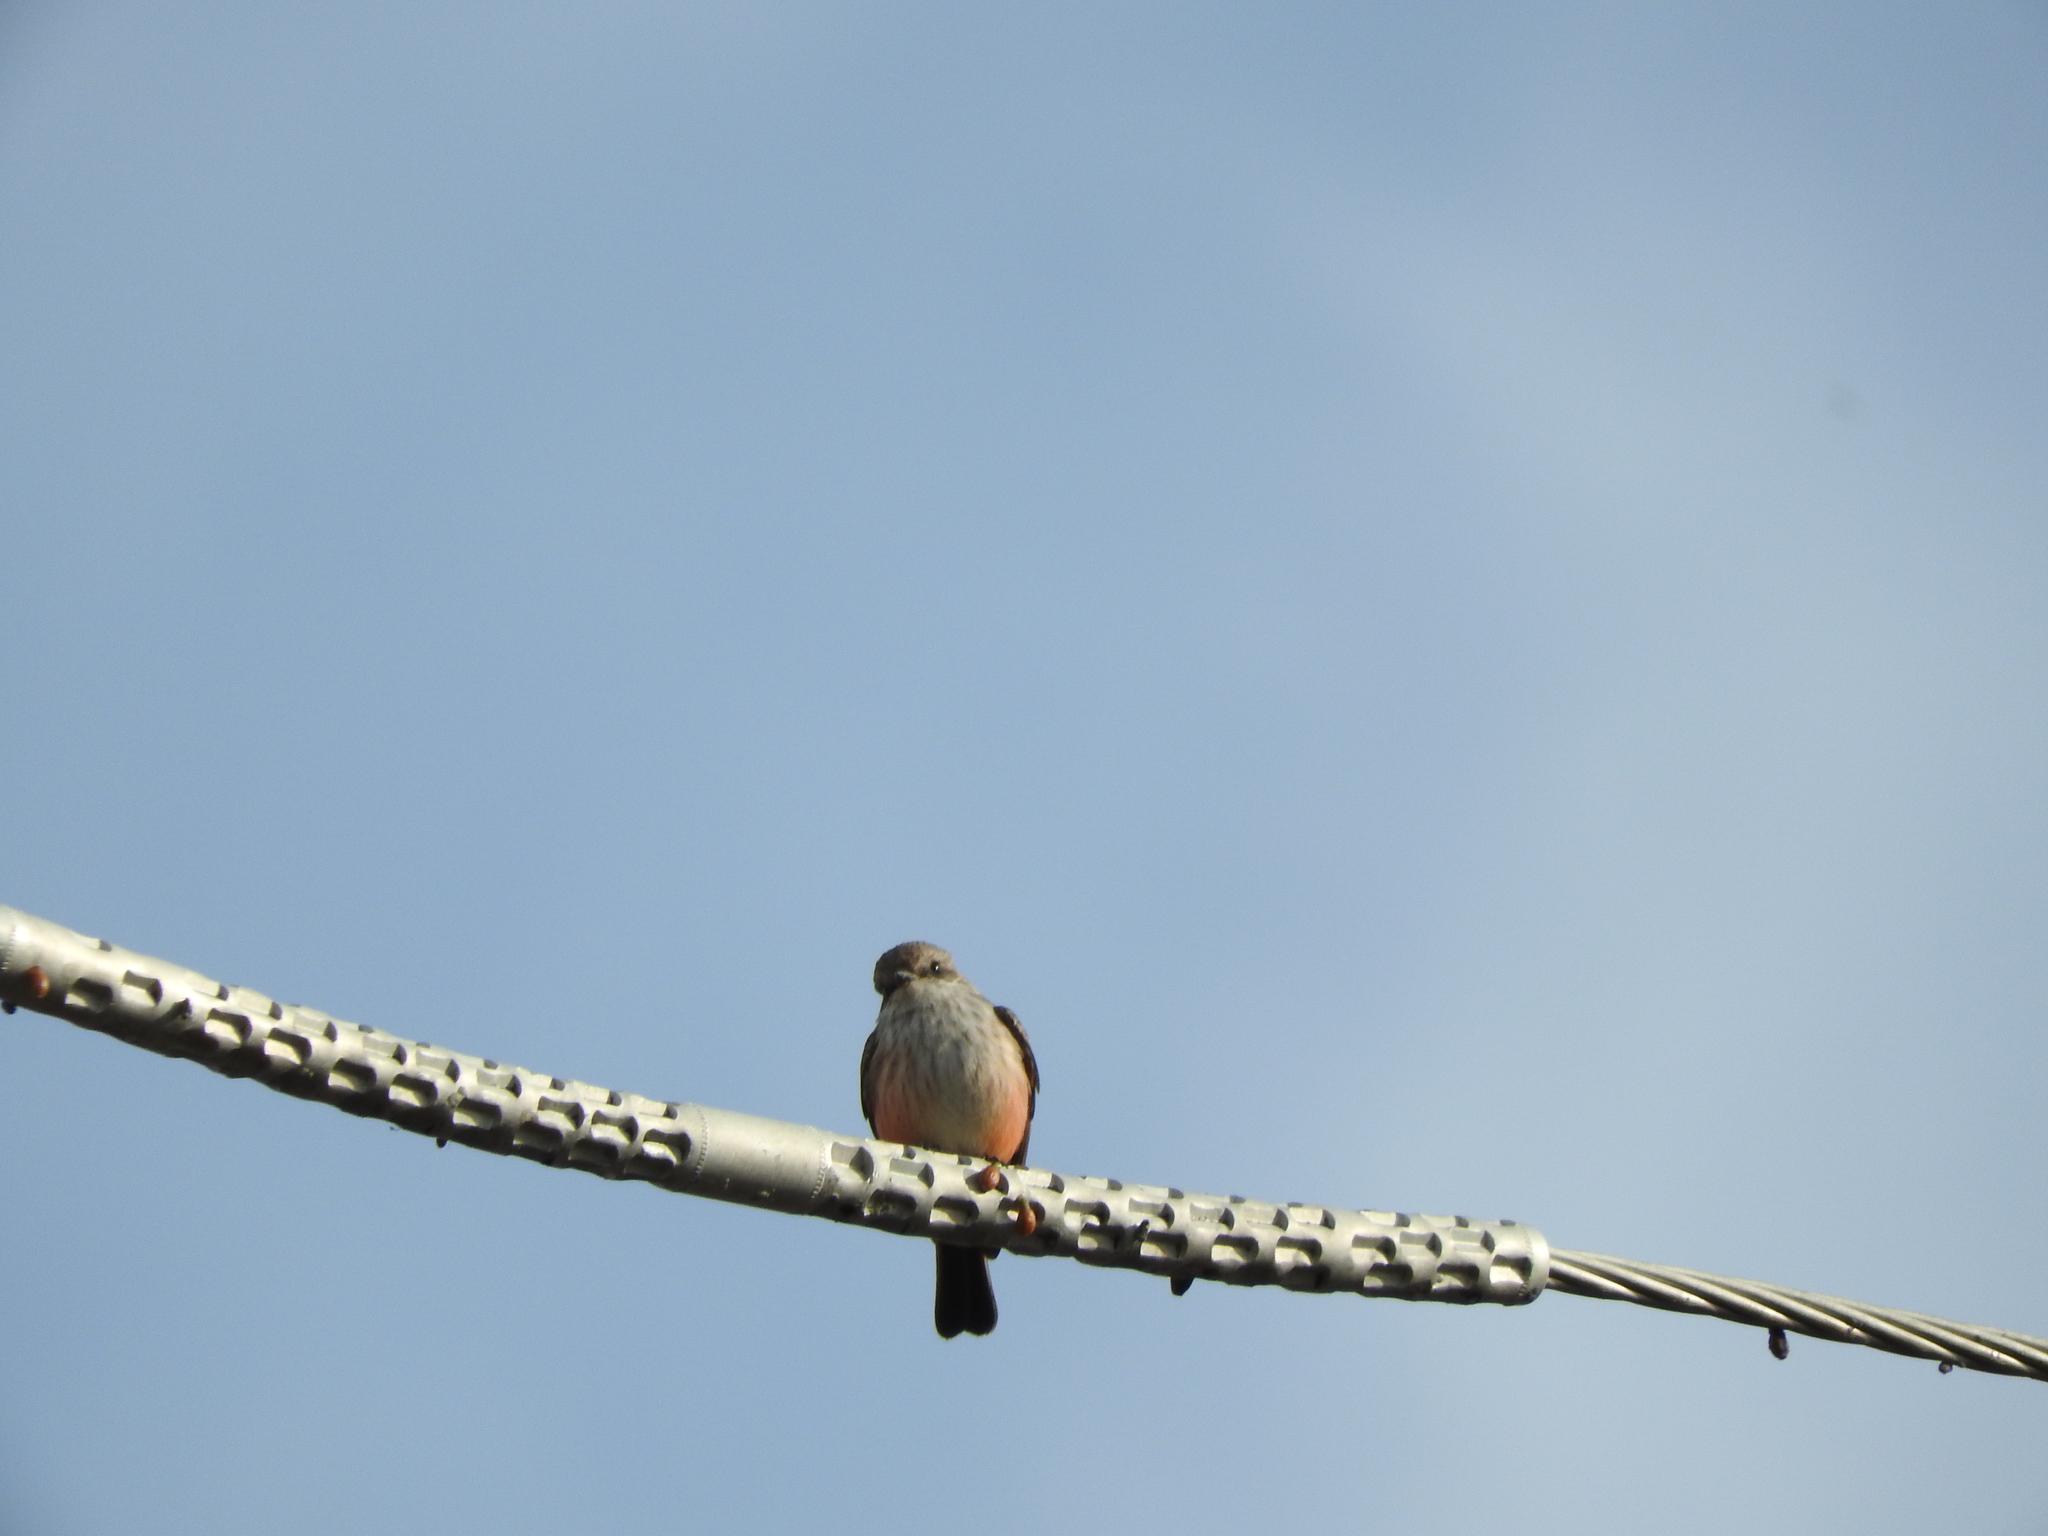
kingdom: Animalia
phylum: Chordata
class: Aves
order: Passeriformes
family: Tyrannidae
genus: Pyrocephalus
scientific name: Pyrocephalus rubinus
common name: Vermilion flycatcher
